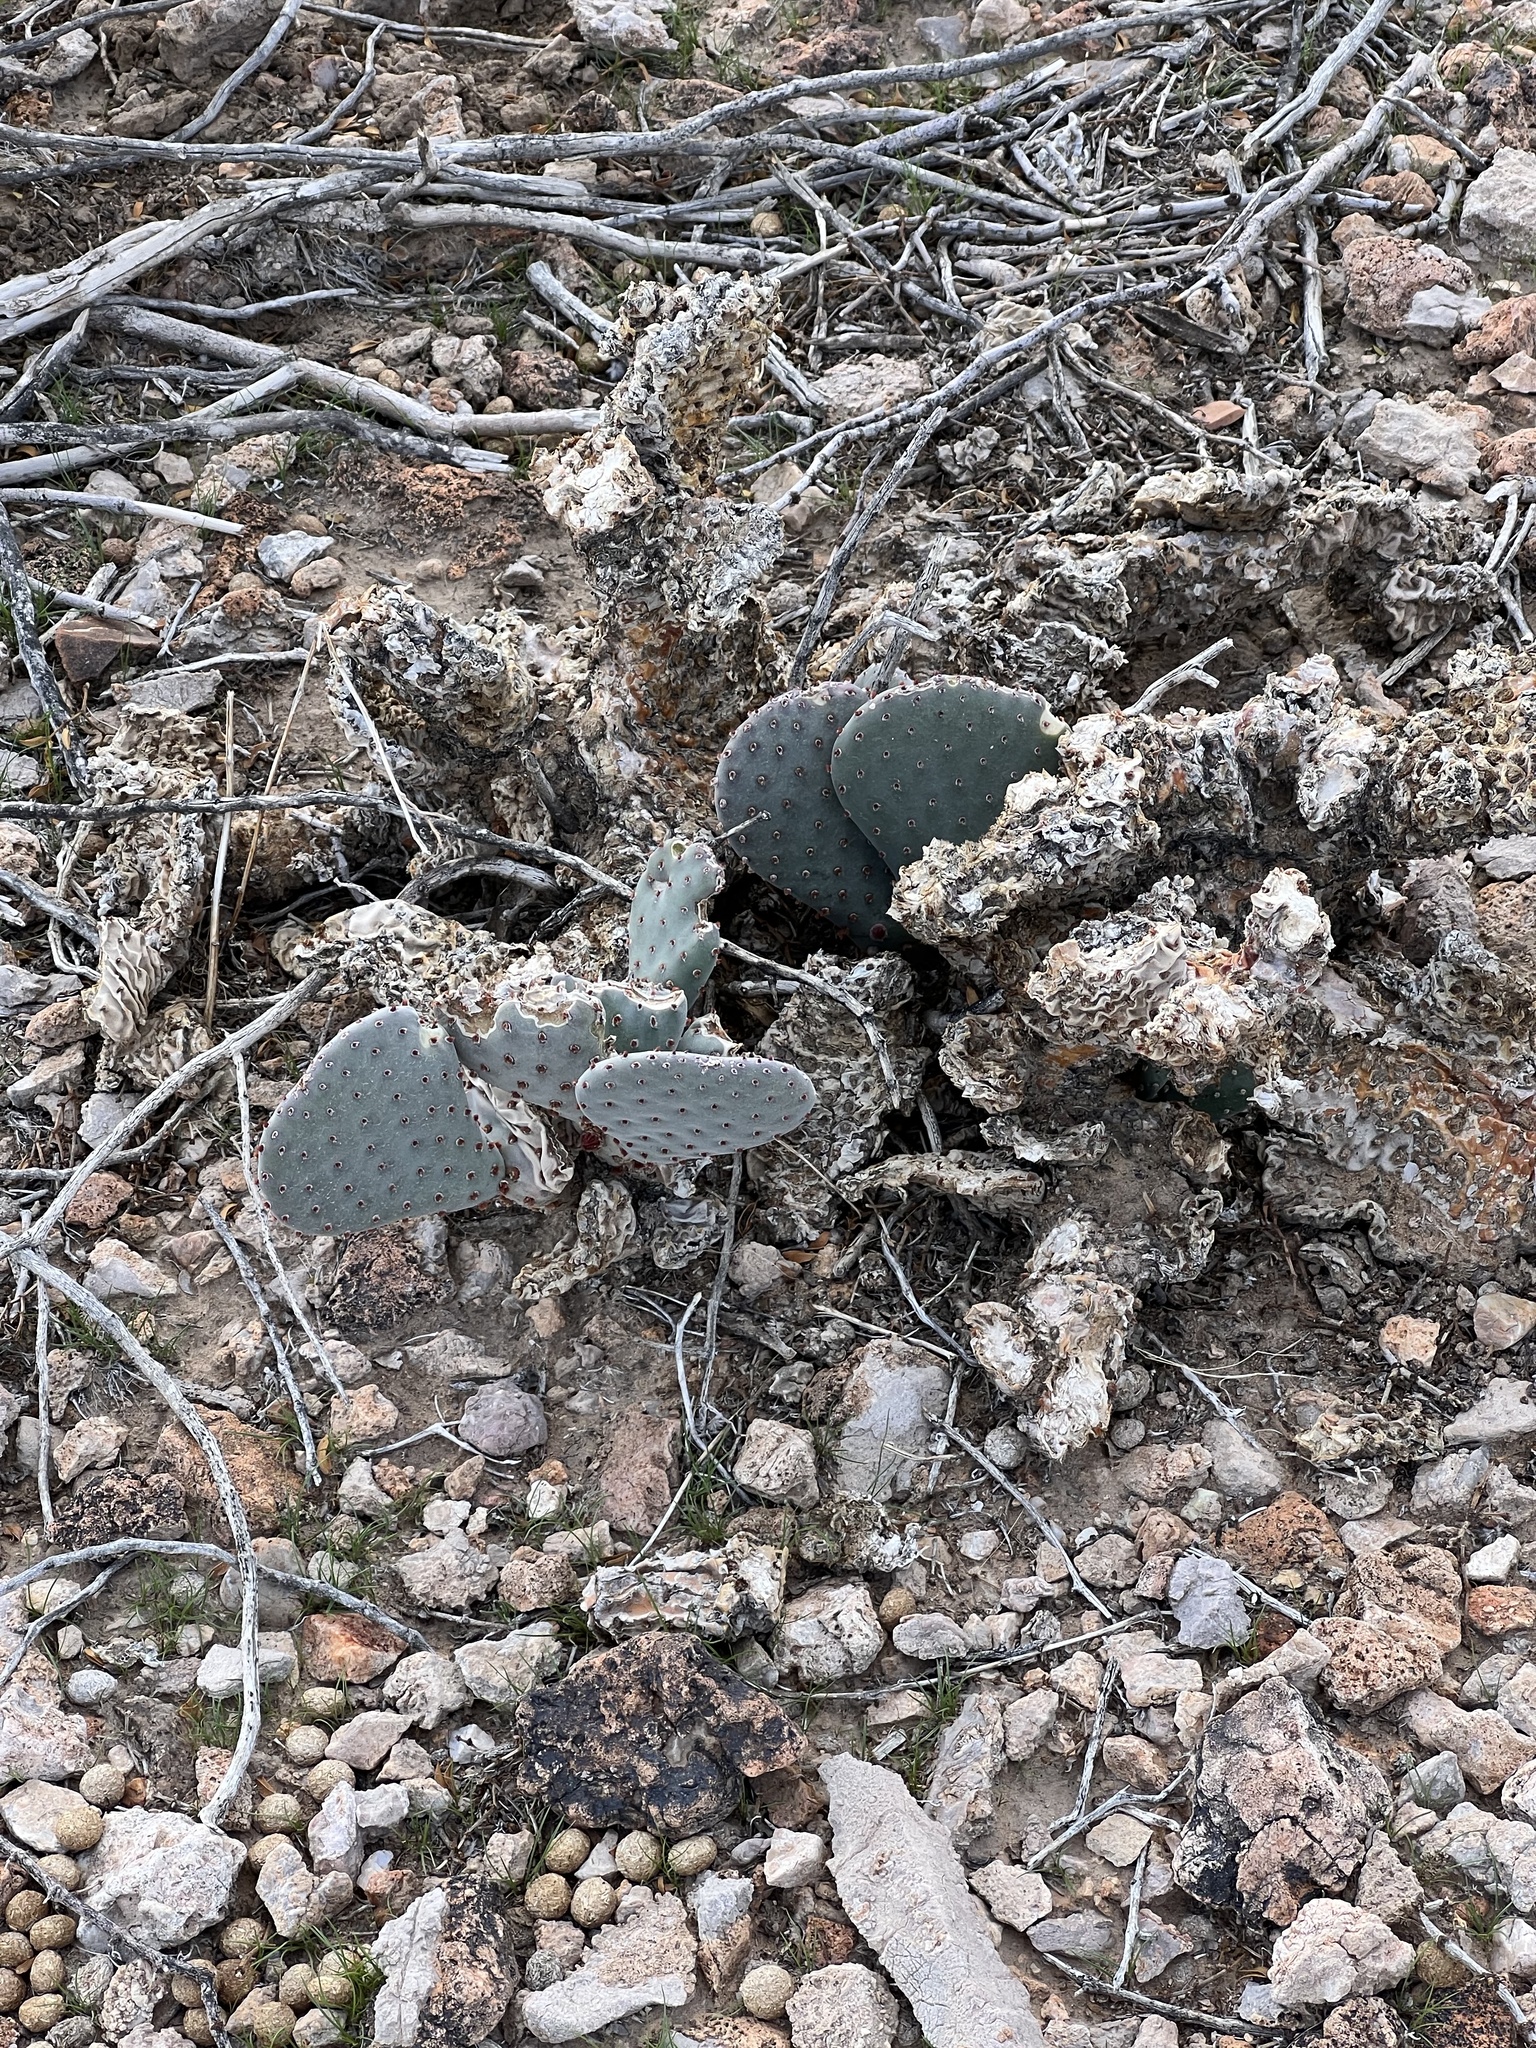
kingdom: Plantae
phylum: Tracheophyta
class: Magnoliopsida
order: Caryophyllales
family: Cactaceae
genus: Opuntia
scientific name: Opuntia basilaris
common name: Beavertail prickly-pear
